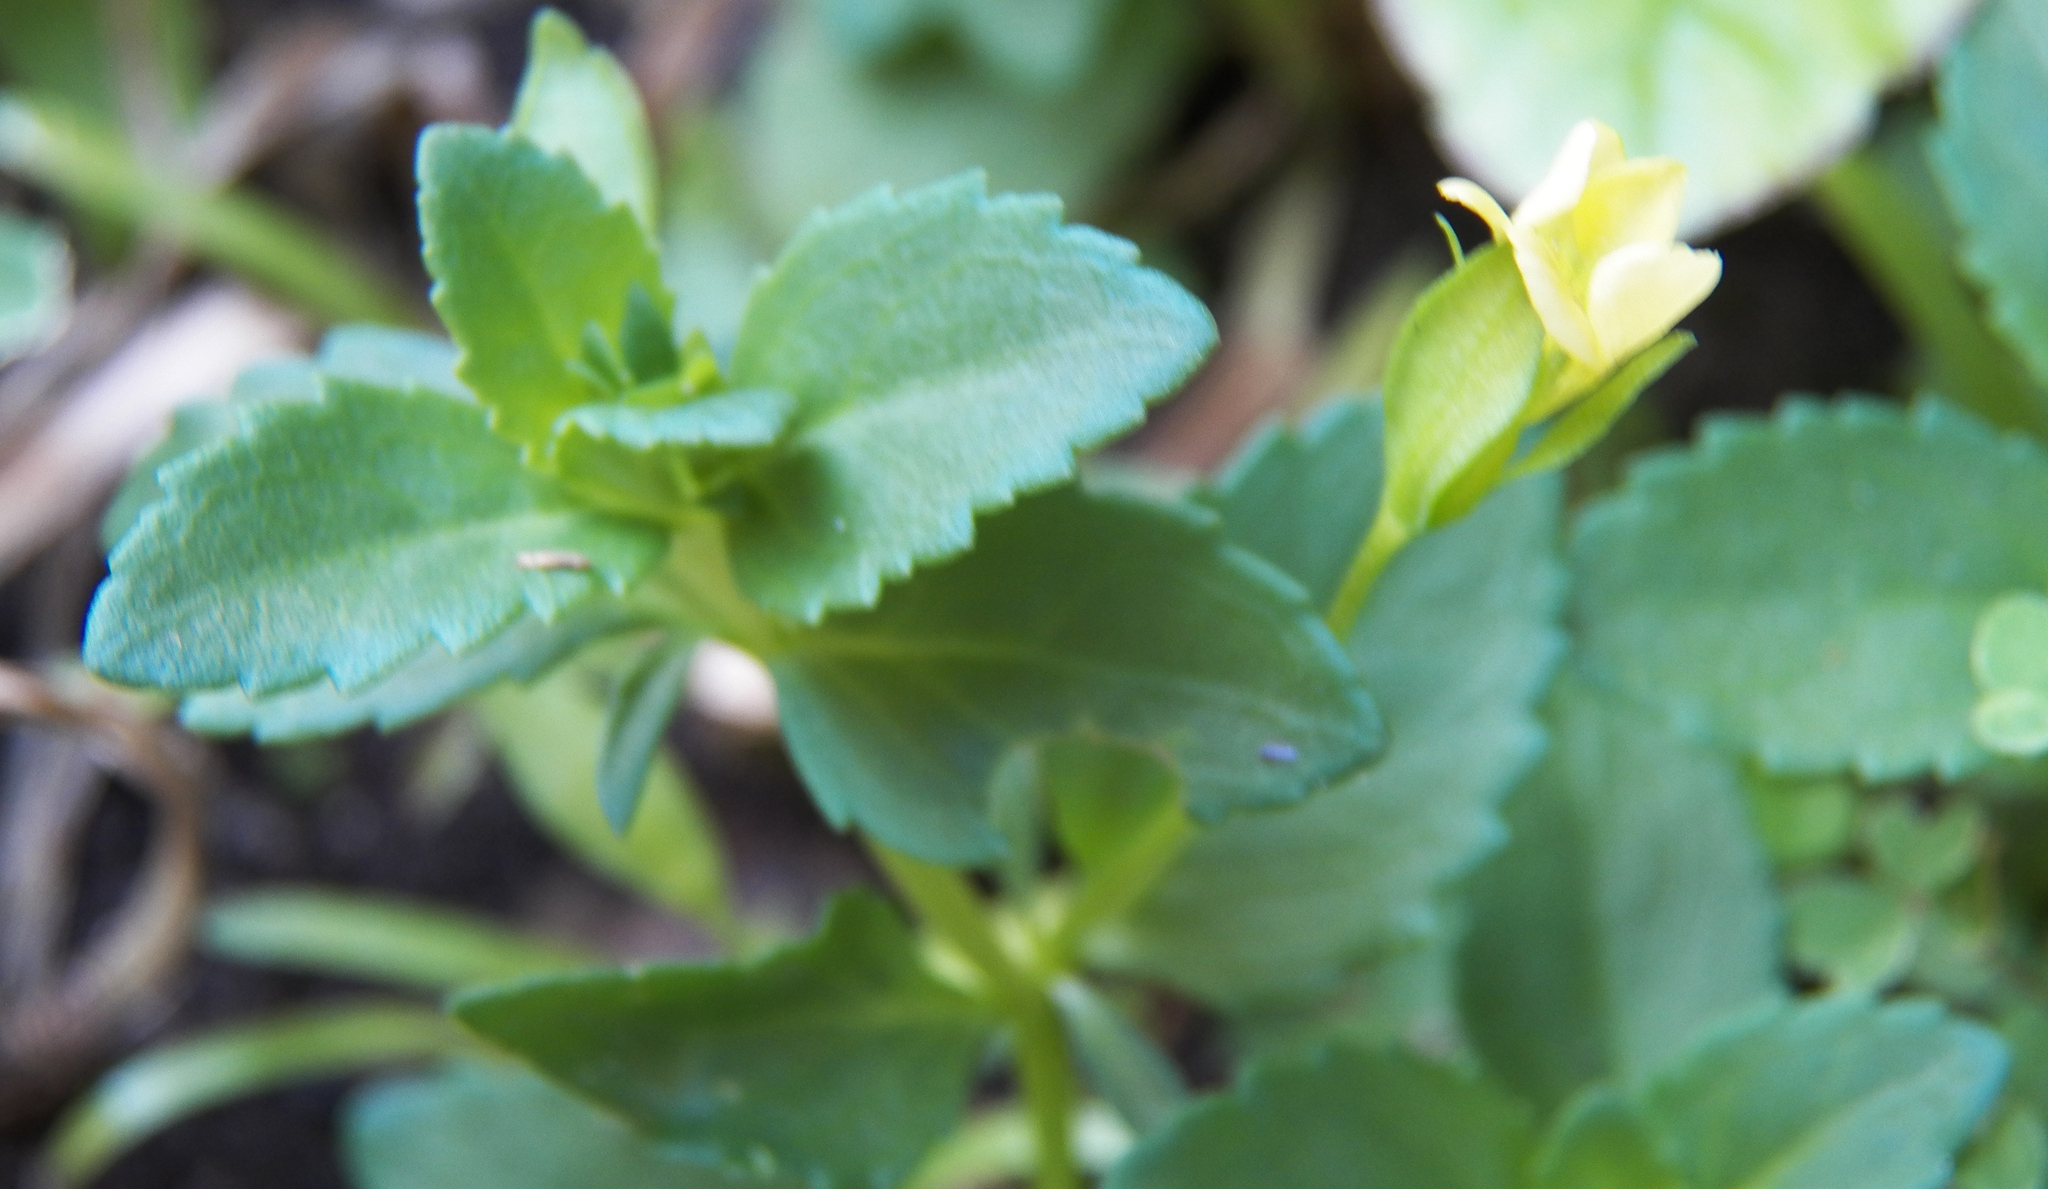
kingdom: Plantae
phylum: Tracheophyta
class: Magnoliopsida
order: Lamiales
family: Plantaginaceae
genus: Mecardonia
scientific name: Mecardonia procumbens
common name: Baby jump-up
